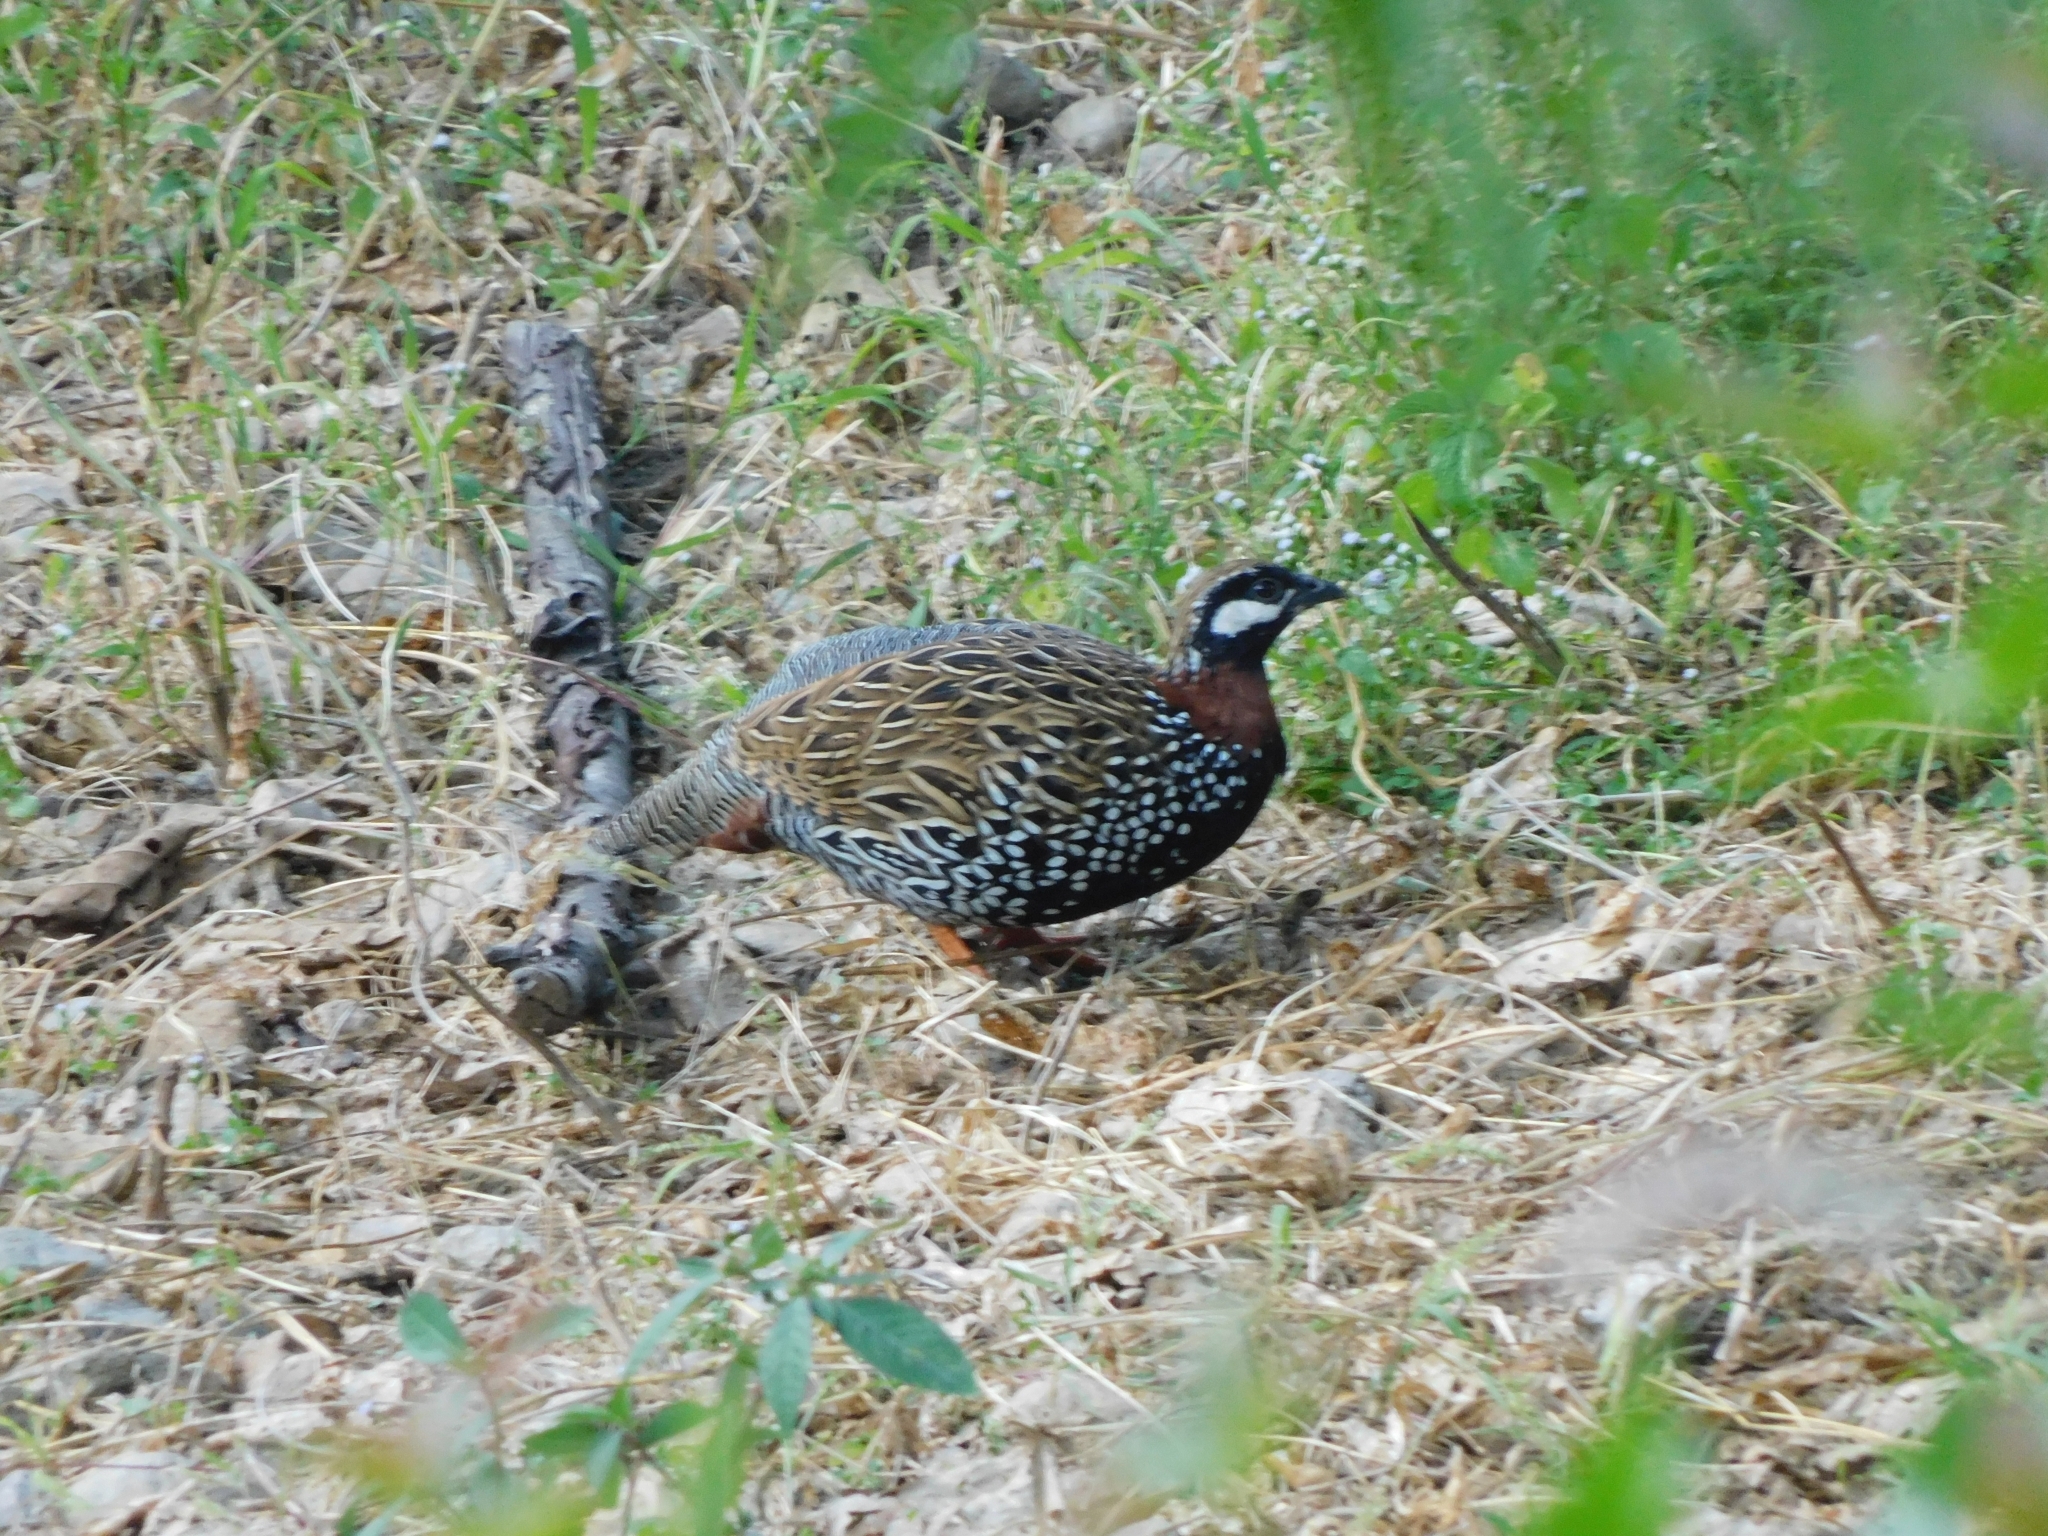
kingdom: Animalia
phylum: Chordata
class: Aves
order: Galliformes
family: Phasianidae
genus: Francolinus
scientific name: Francolinus francolinus
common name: Black francolin
